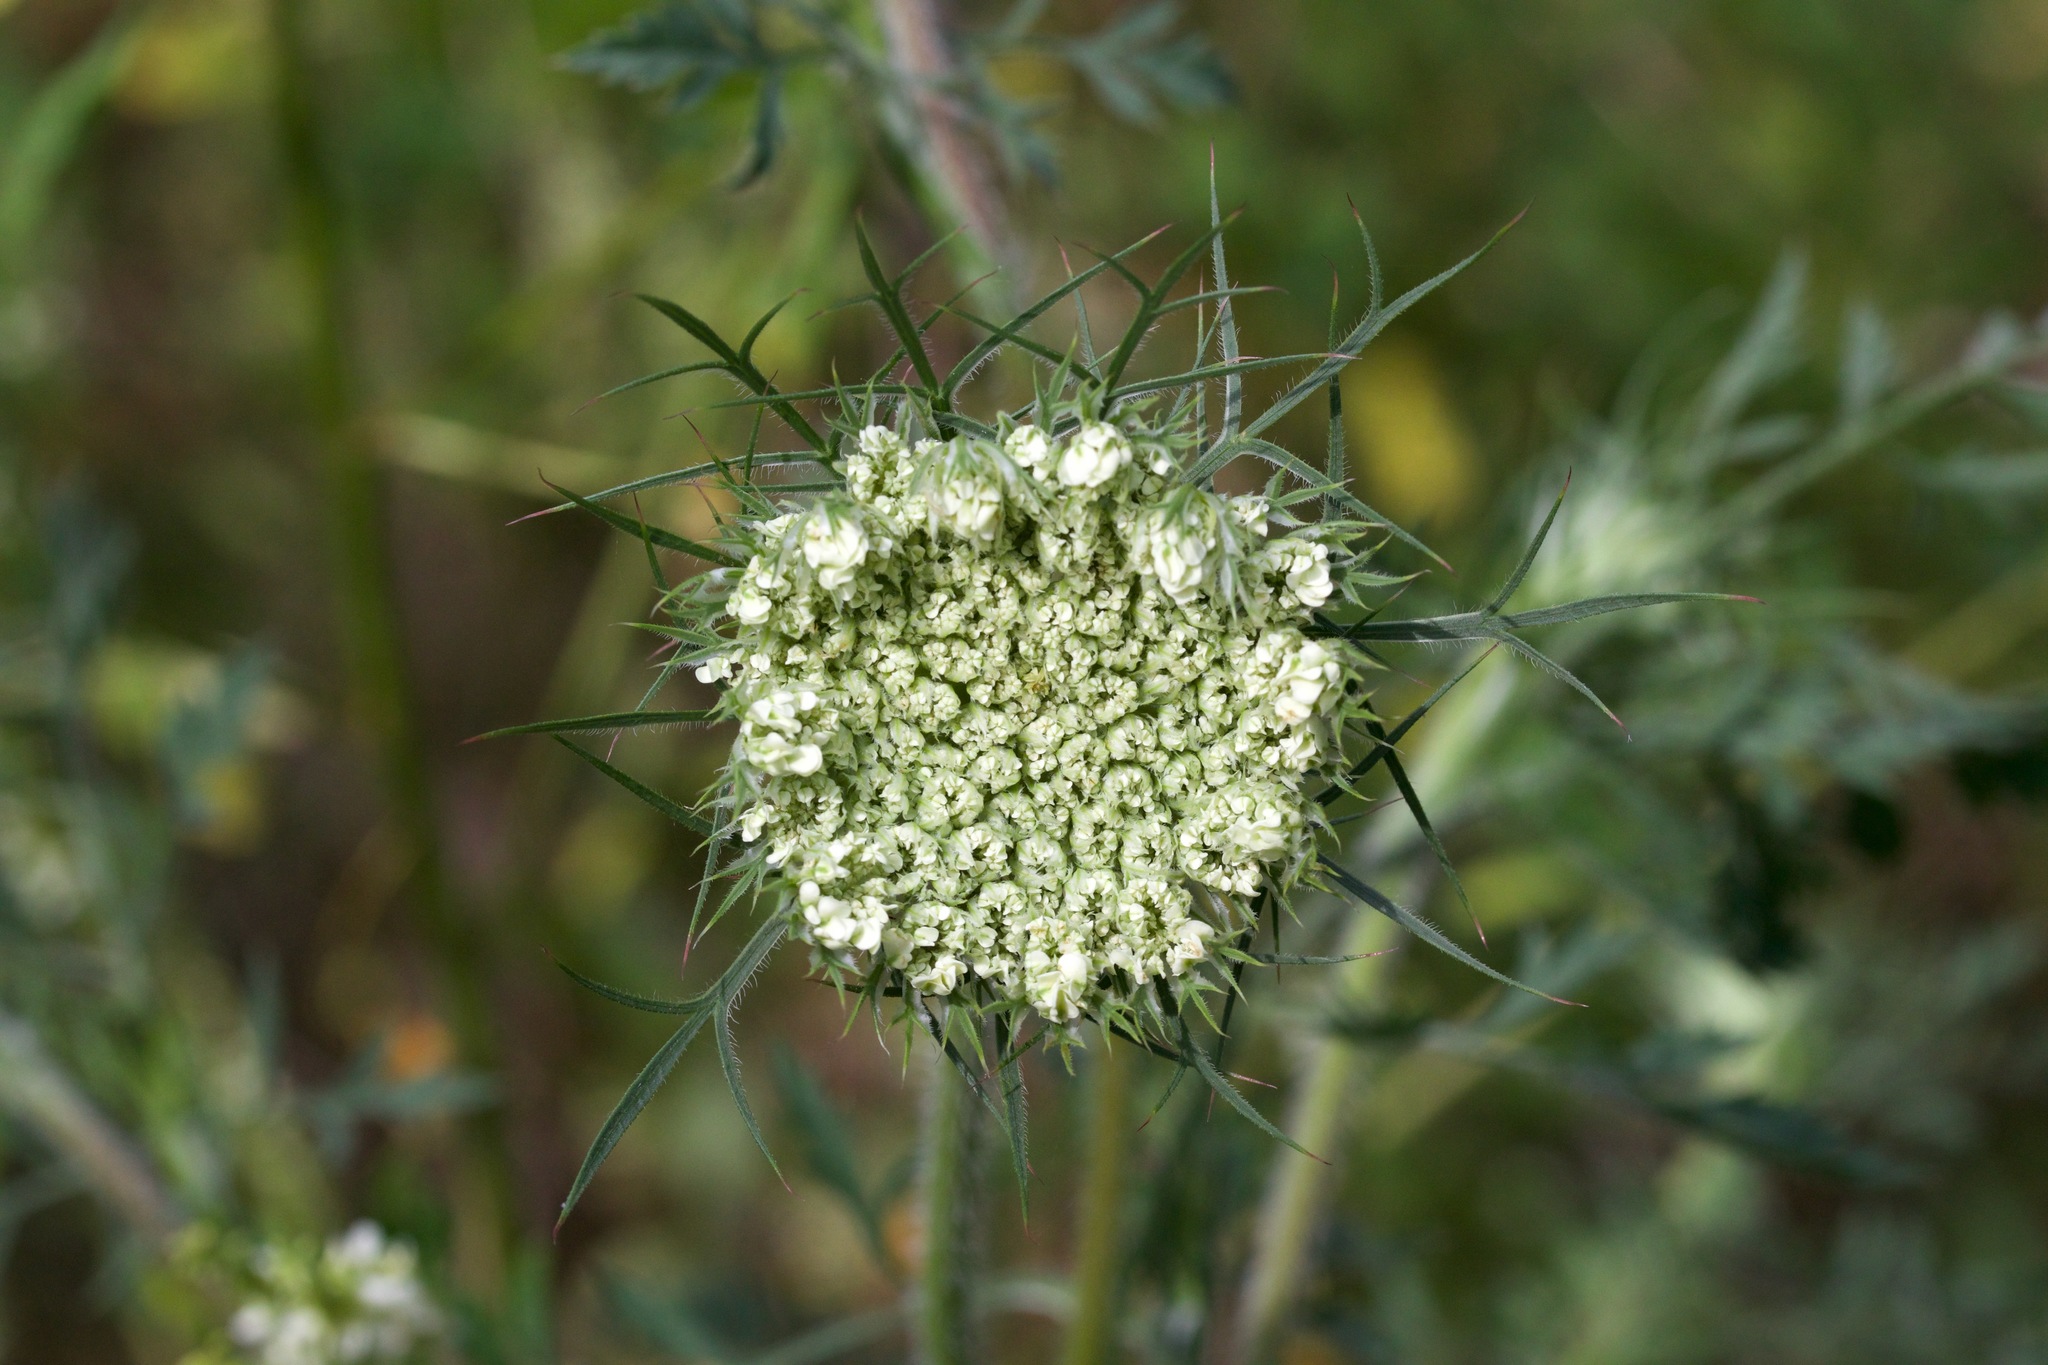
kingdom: Plantae
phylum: Tracheophyta
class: Magnoliopsida
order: Apiales
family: Apiaceae
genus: Daucus
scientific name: Daucus carota
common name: Wild carrot
